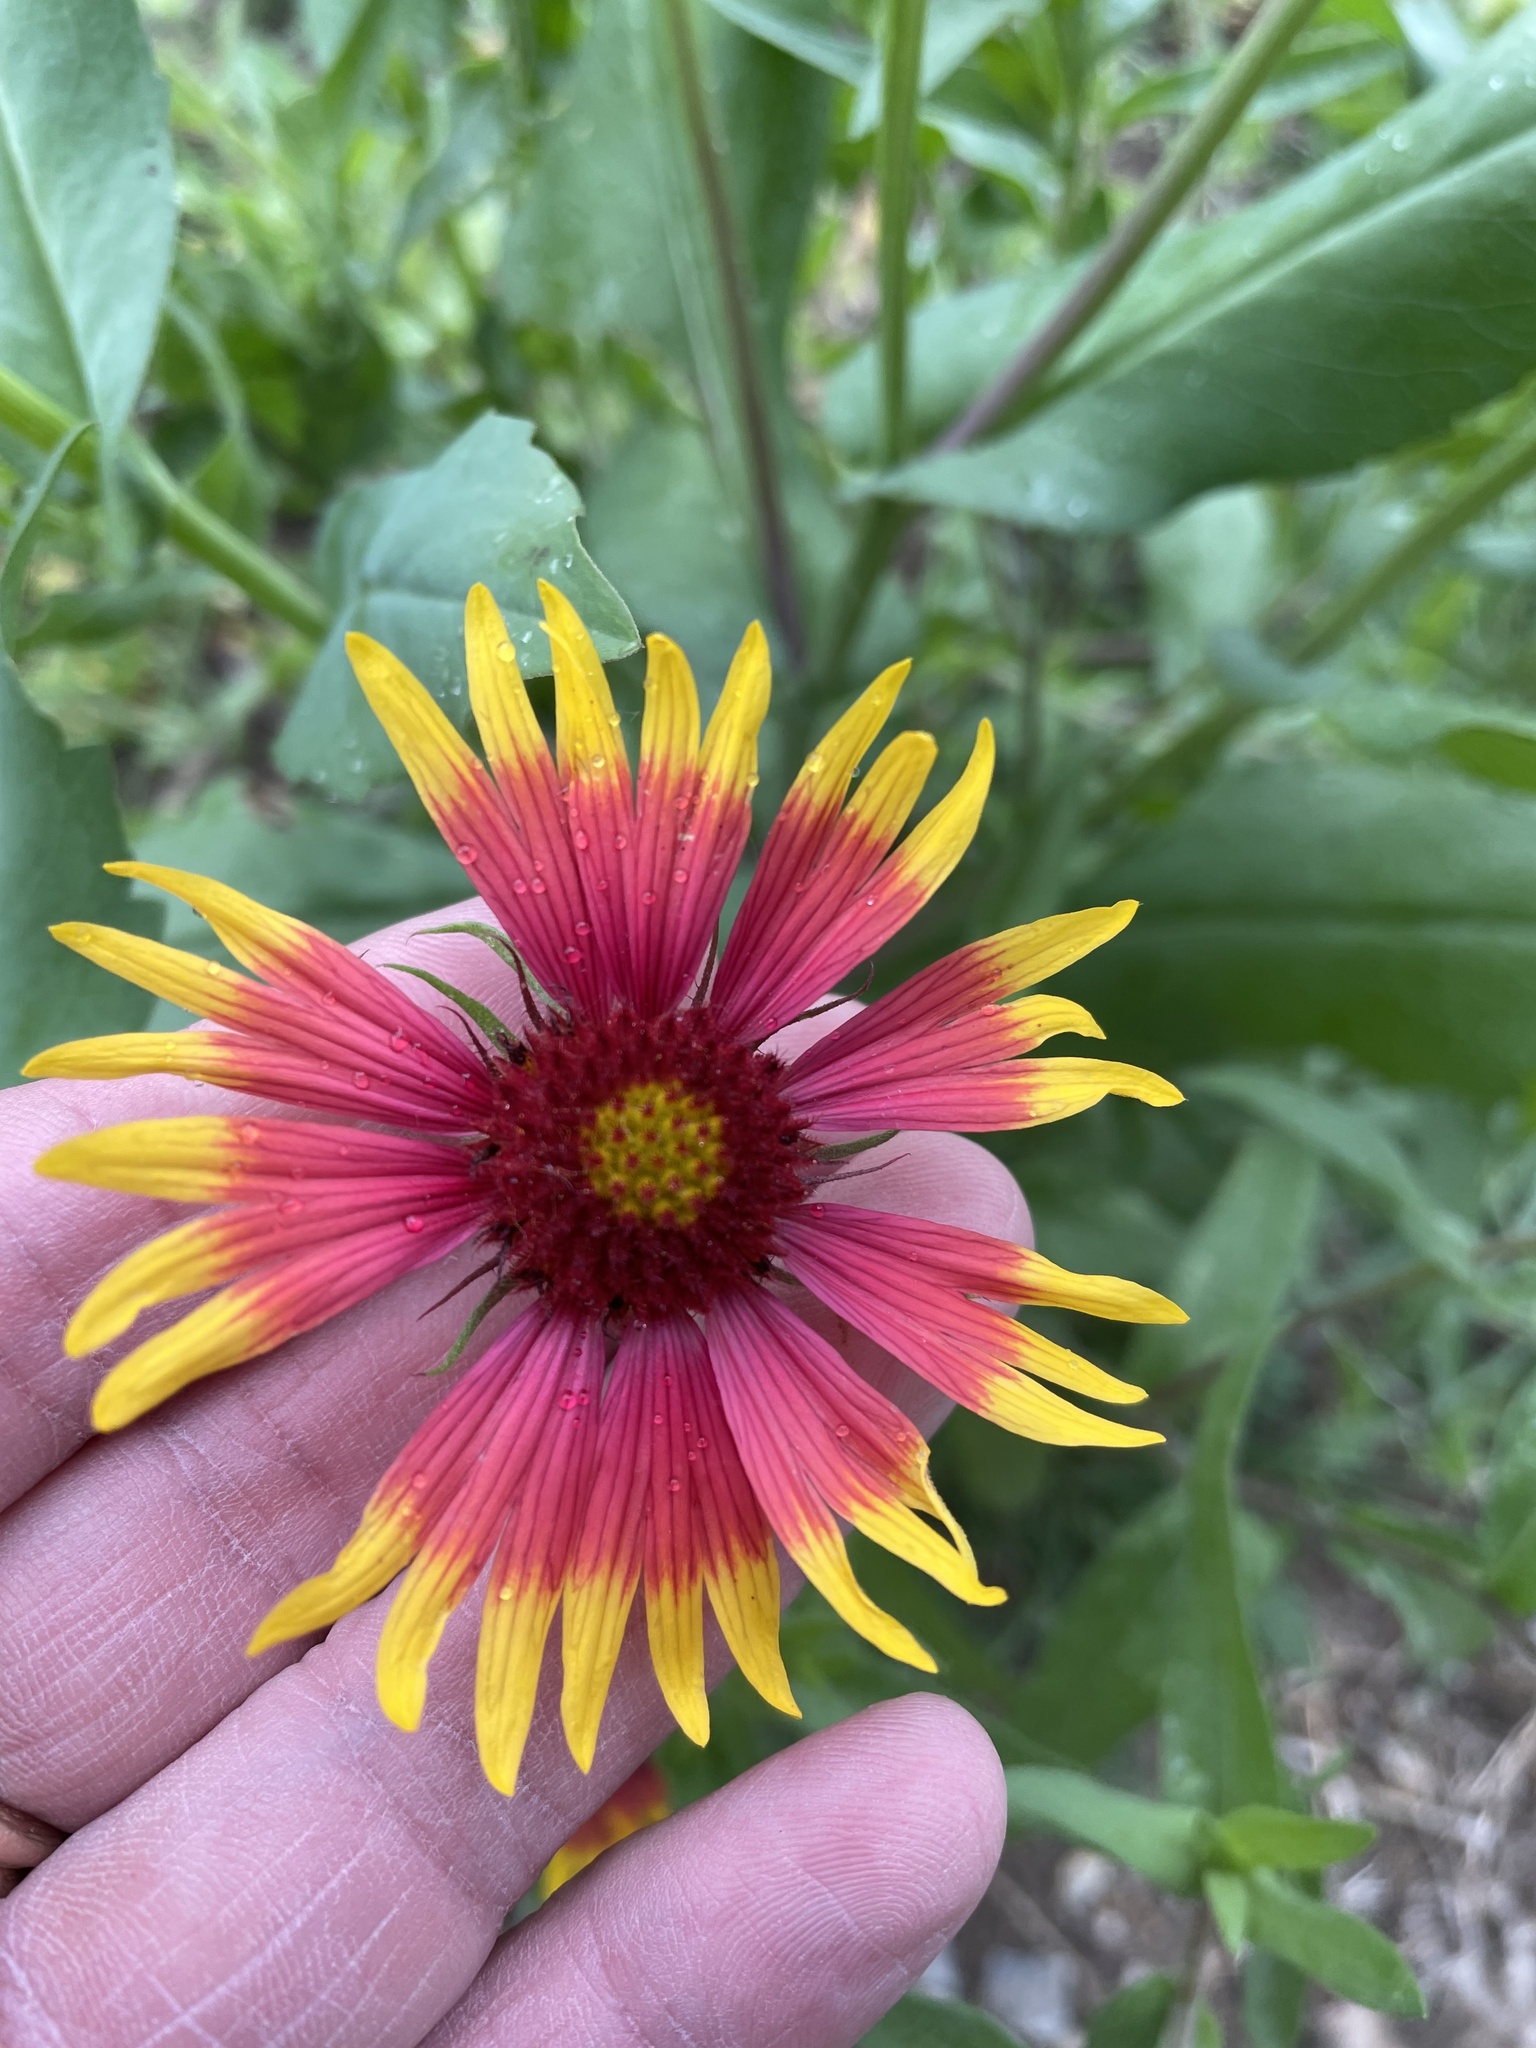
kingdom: Plantae
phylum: Tracheophyta
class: Magnoliopsida
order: Asterales
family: Asteraceae
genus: Gaillardia
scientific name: Gaillardia pulchella
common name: Firewheel
